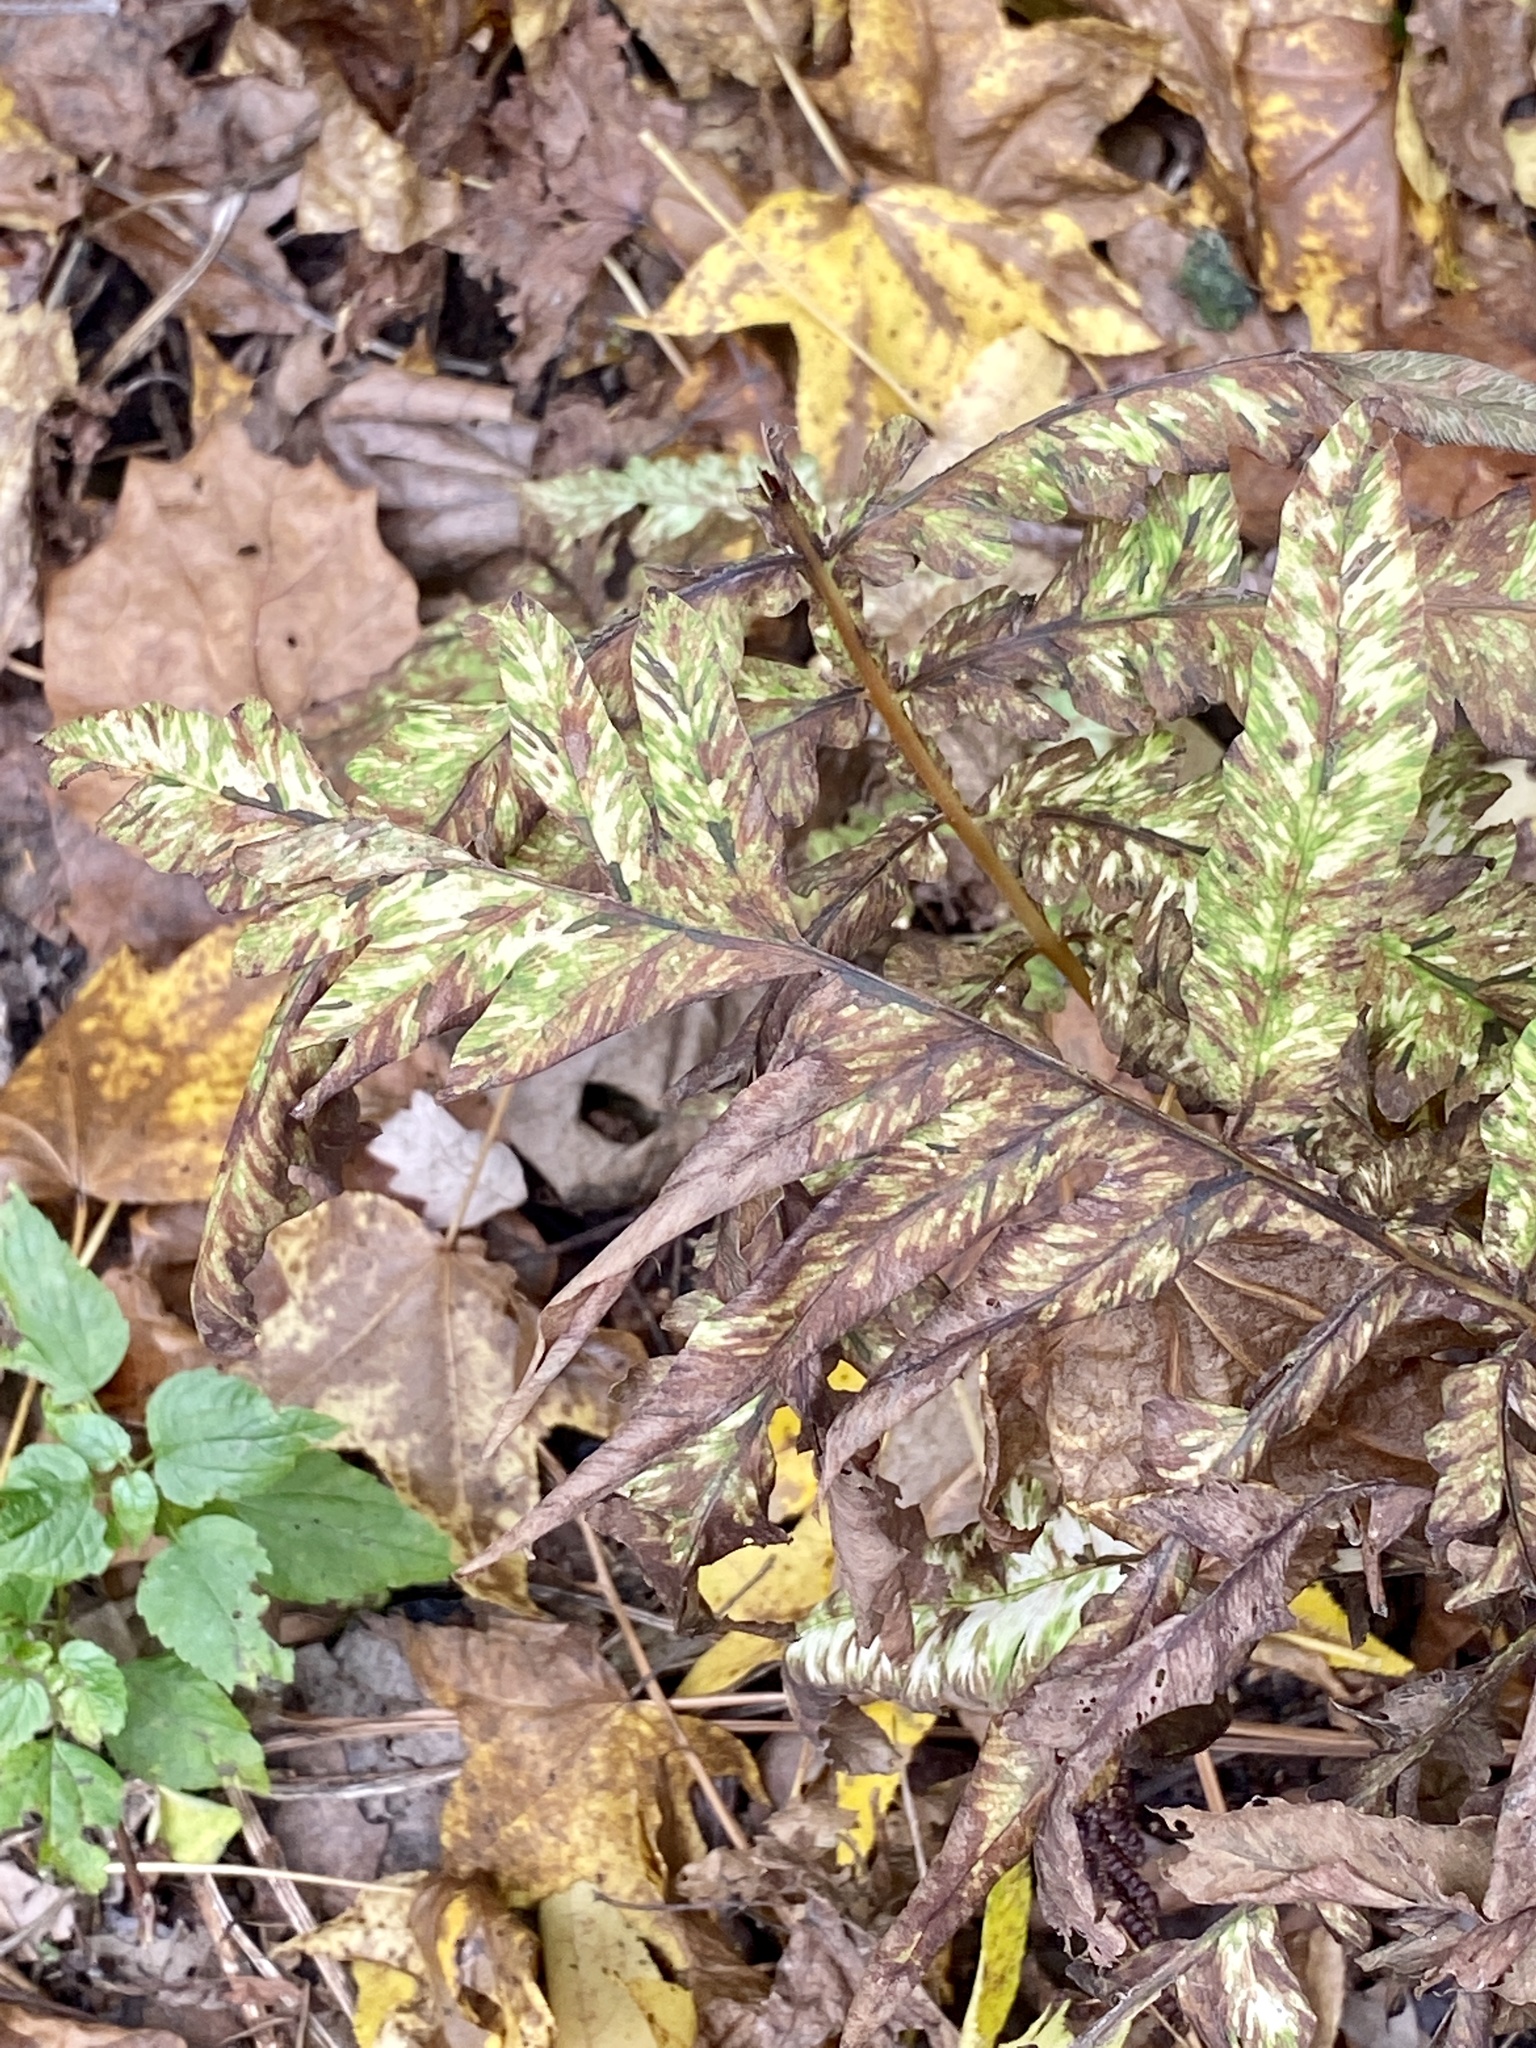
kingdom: Plantae
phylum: Tracheophyta
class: Polypodiopsida
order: Polypodiales
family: Onocleaceae
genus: Onoclea
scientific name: Onoclea sensibilis
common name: Sensitive fern
